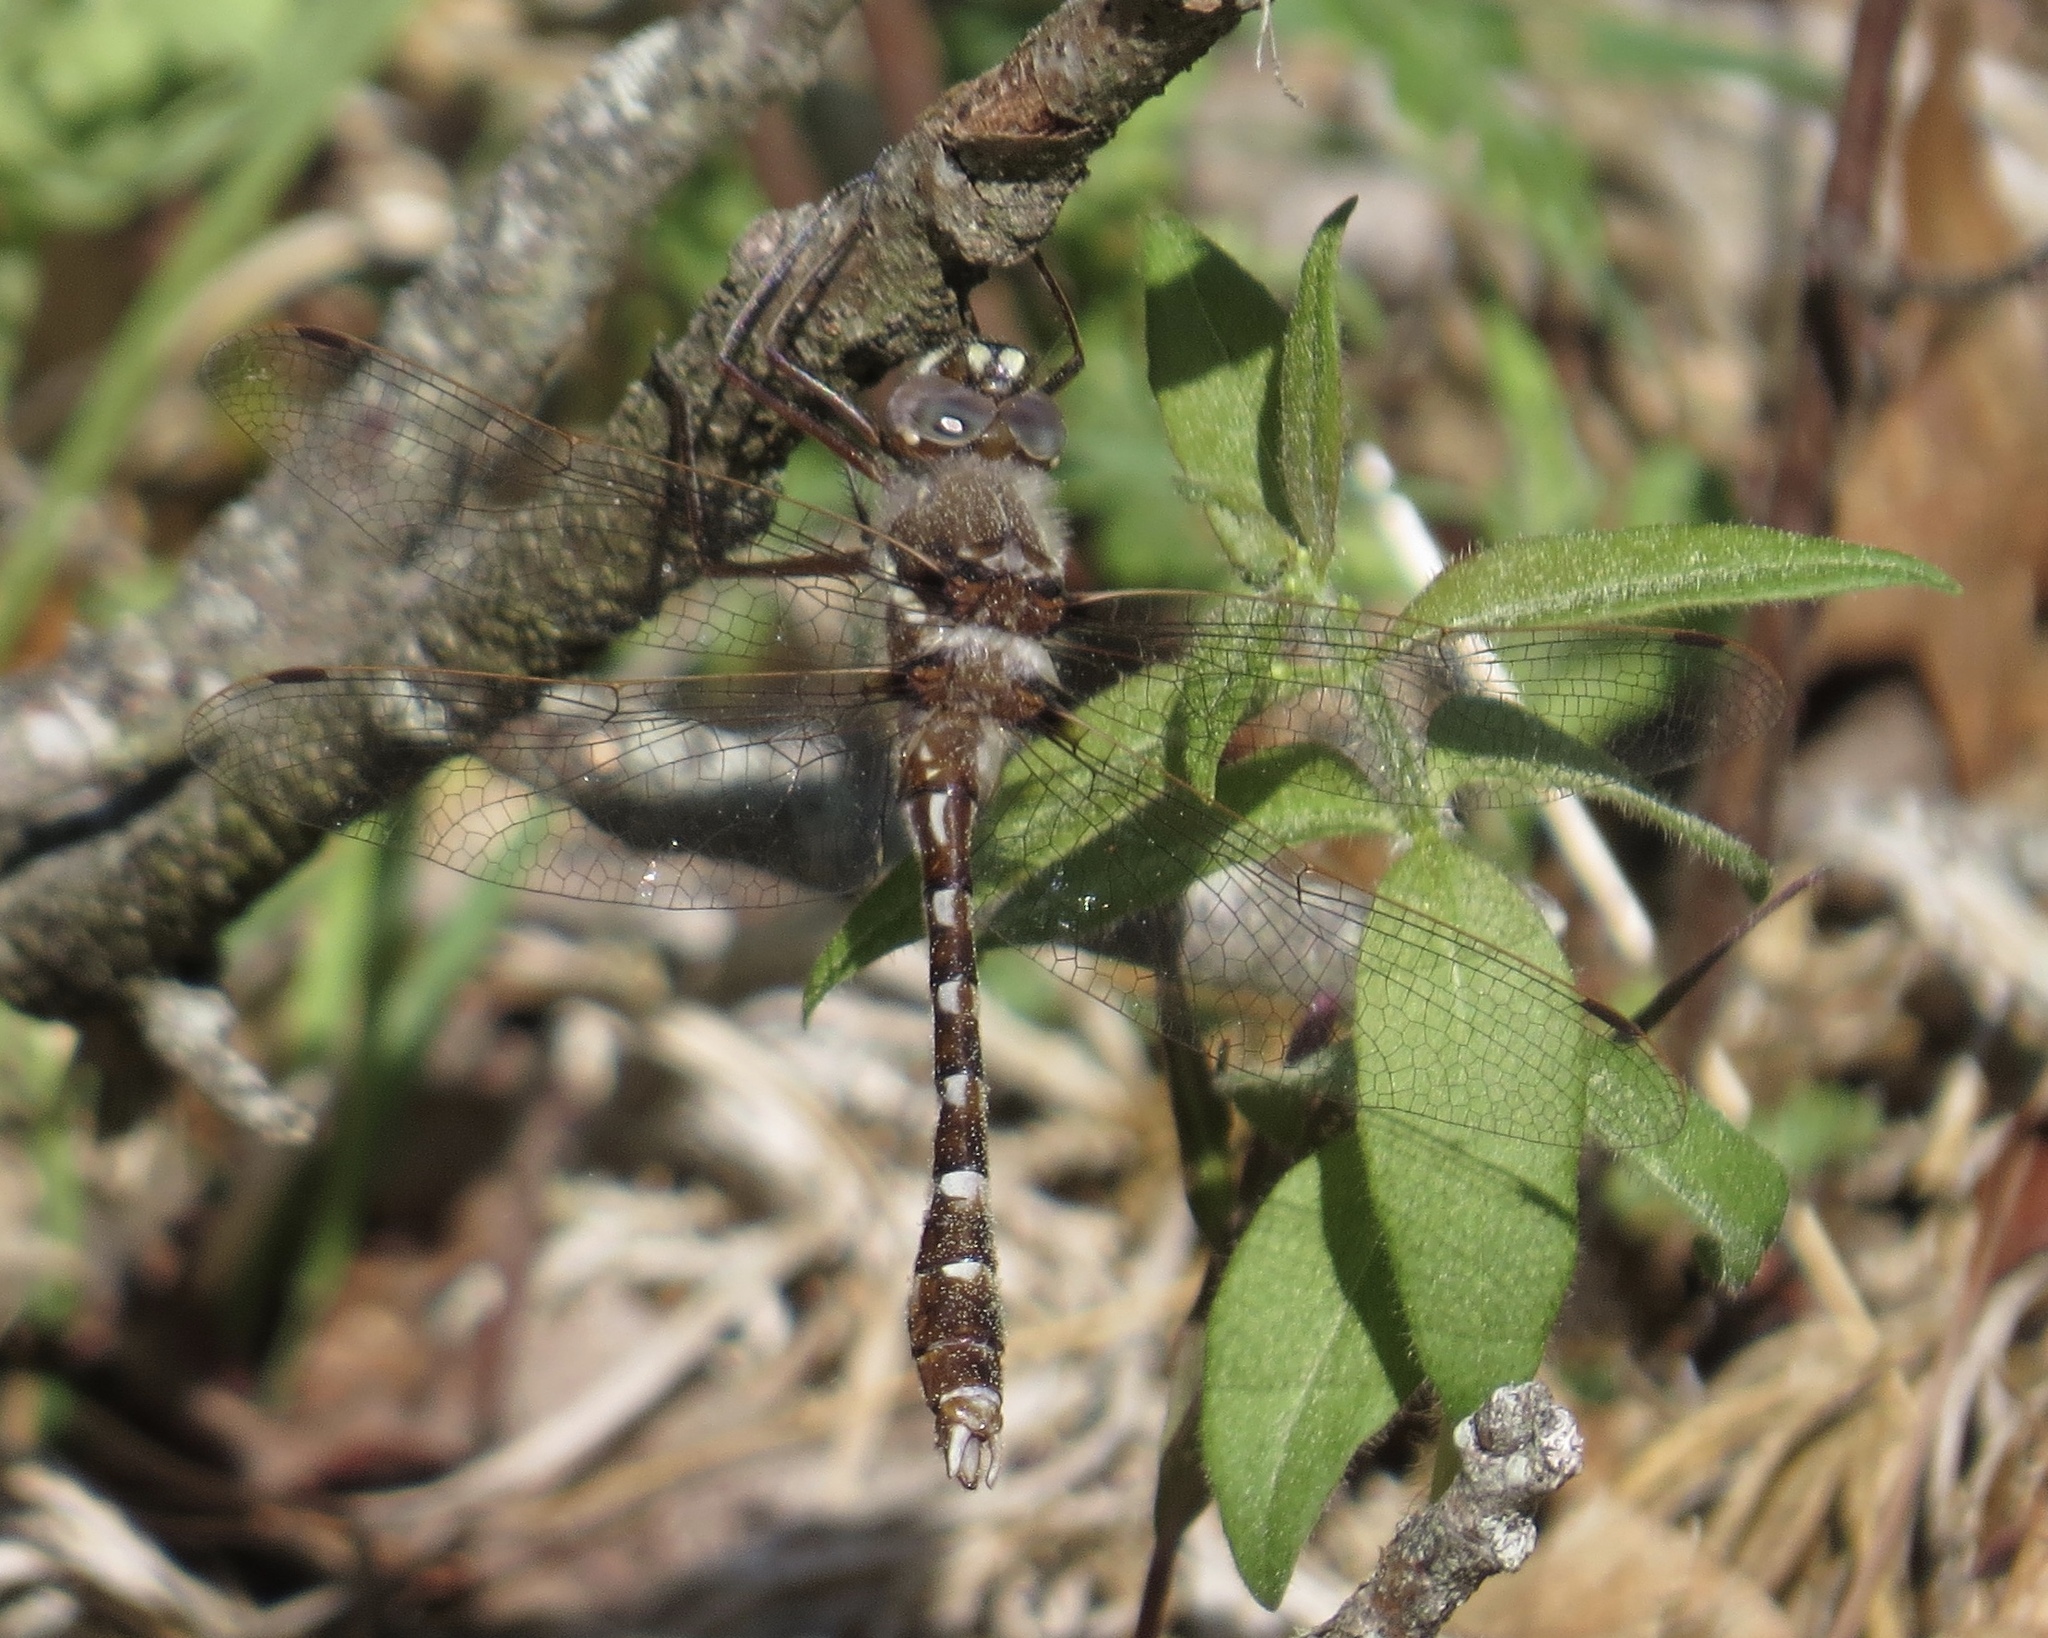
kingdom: Animalia
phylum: Arthropoda
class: Insecta
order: Odonata
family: Macromiidae
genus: Didymops
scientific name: Didymops transversa
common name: Stream cruiser
